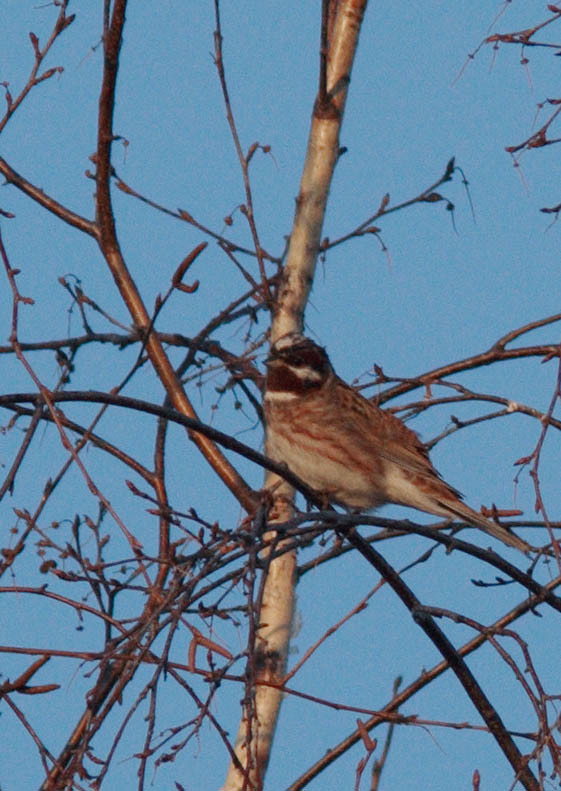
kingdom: Animalia
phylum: Chordata
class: Aves
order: Passeriformes
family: Emberizidae
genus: Emberiza
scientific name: Emberiza leucocephalos
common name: Pine bunting
